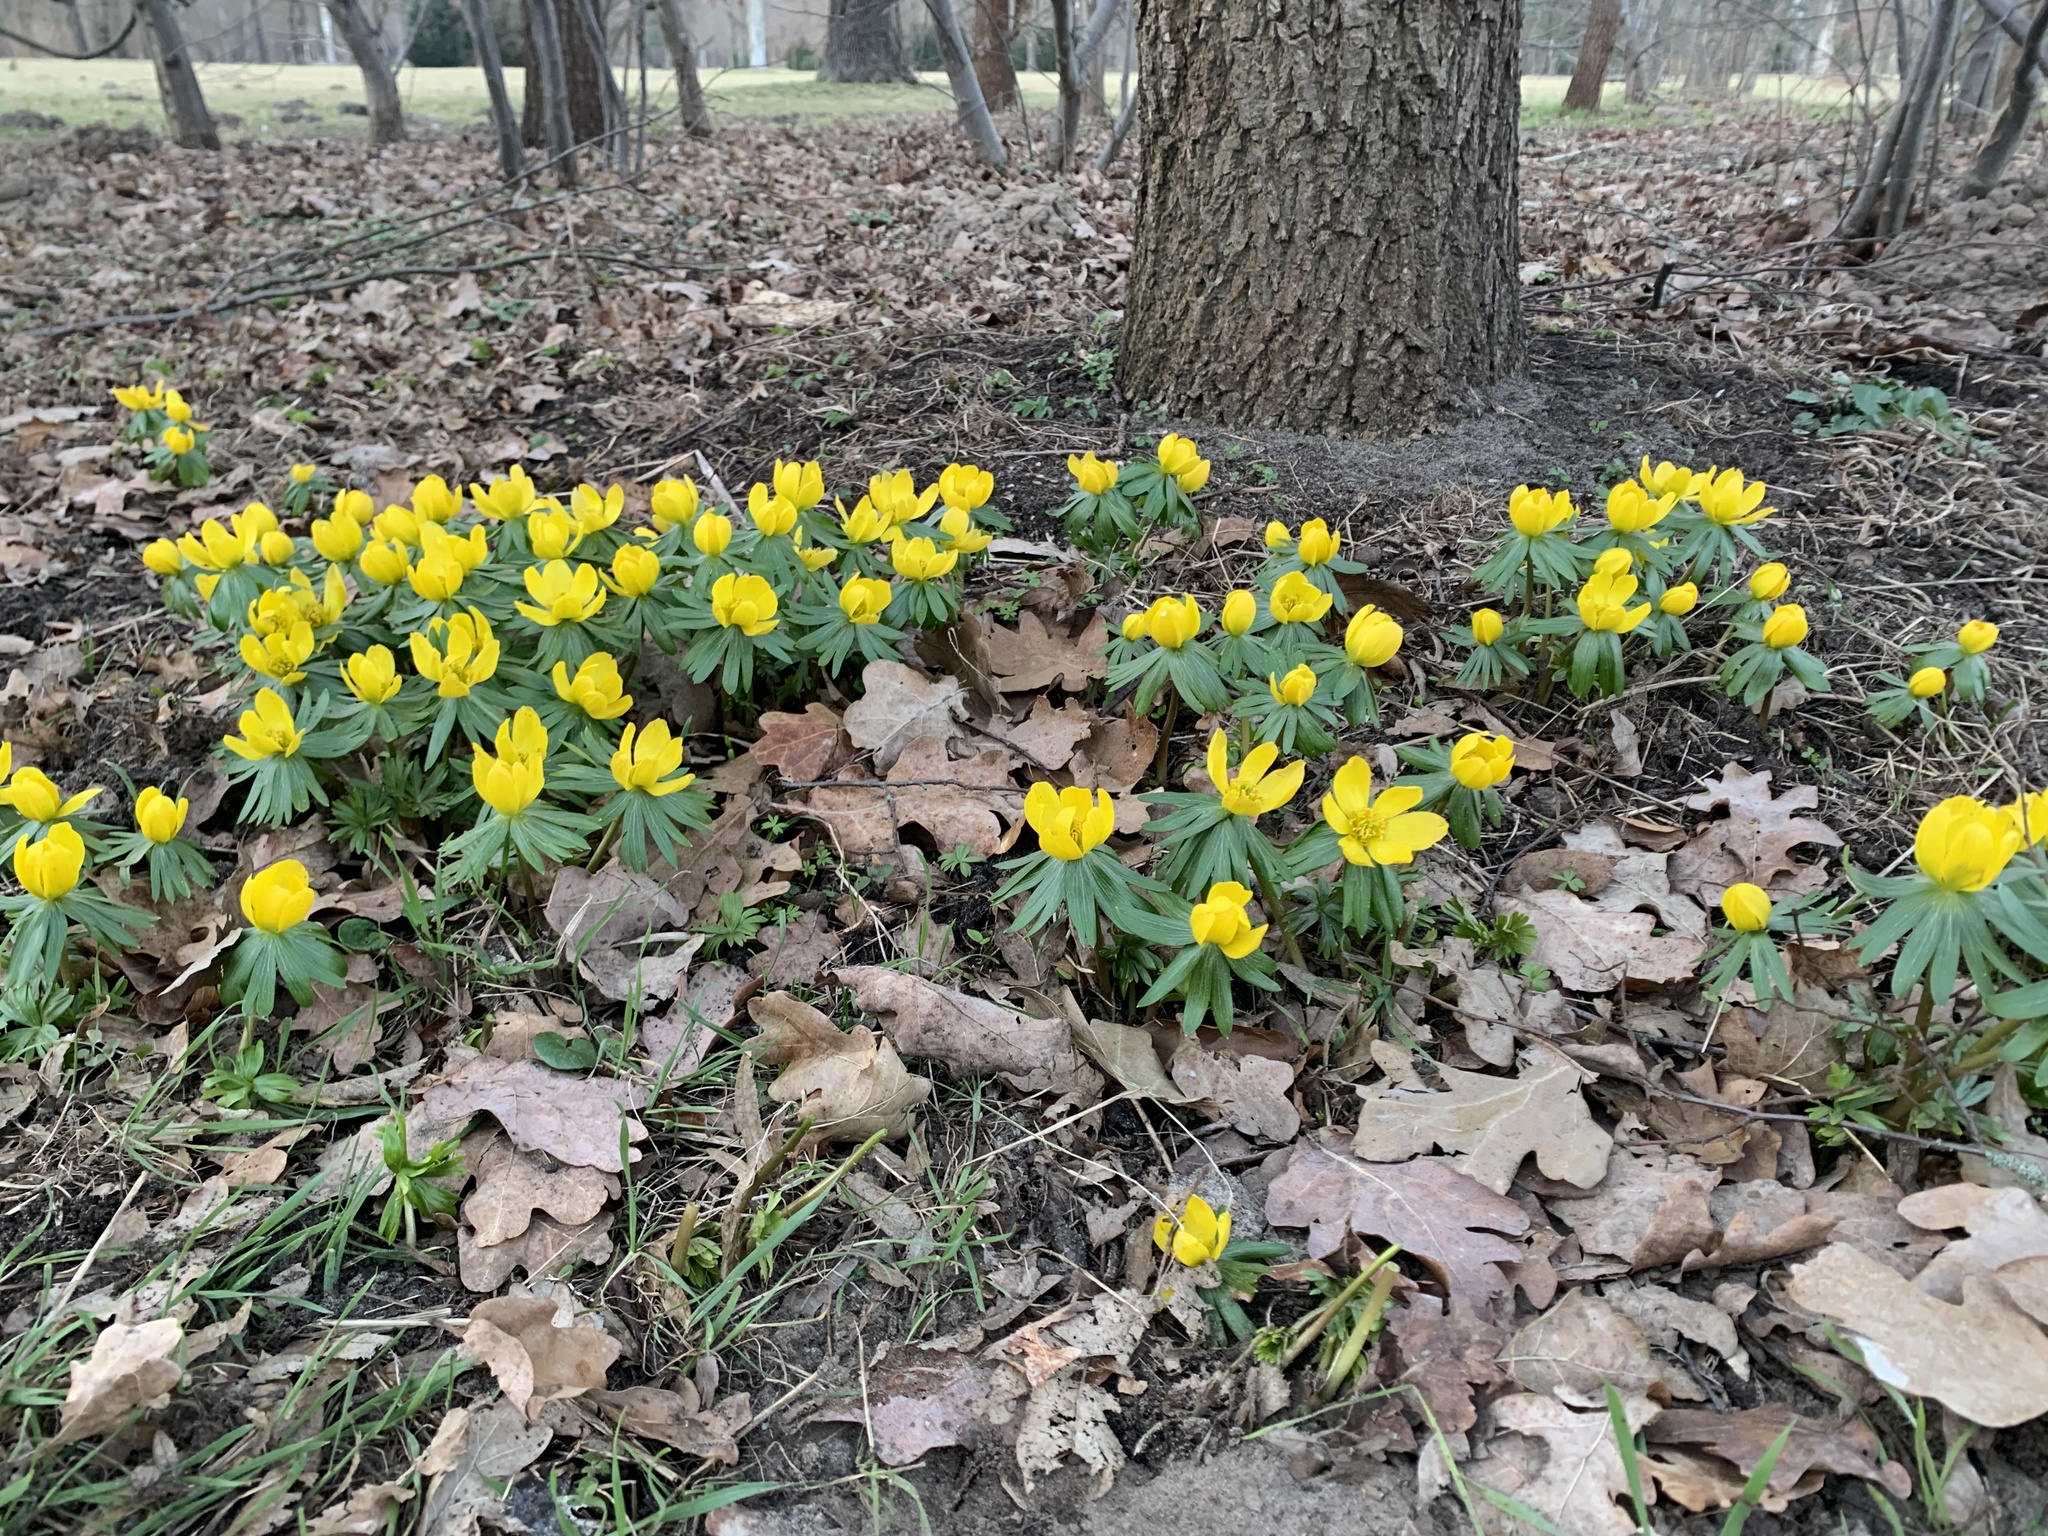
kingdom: Plantae
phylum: Tracheophyta
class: Magnoliopsida
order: Ranunculales
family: Ranunculaceae
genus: Eranthis
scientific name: Eranthis hyemalis
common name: Winter aconite
